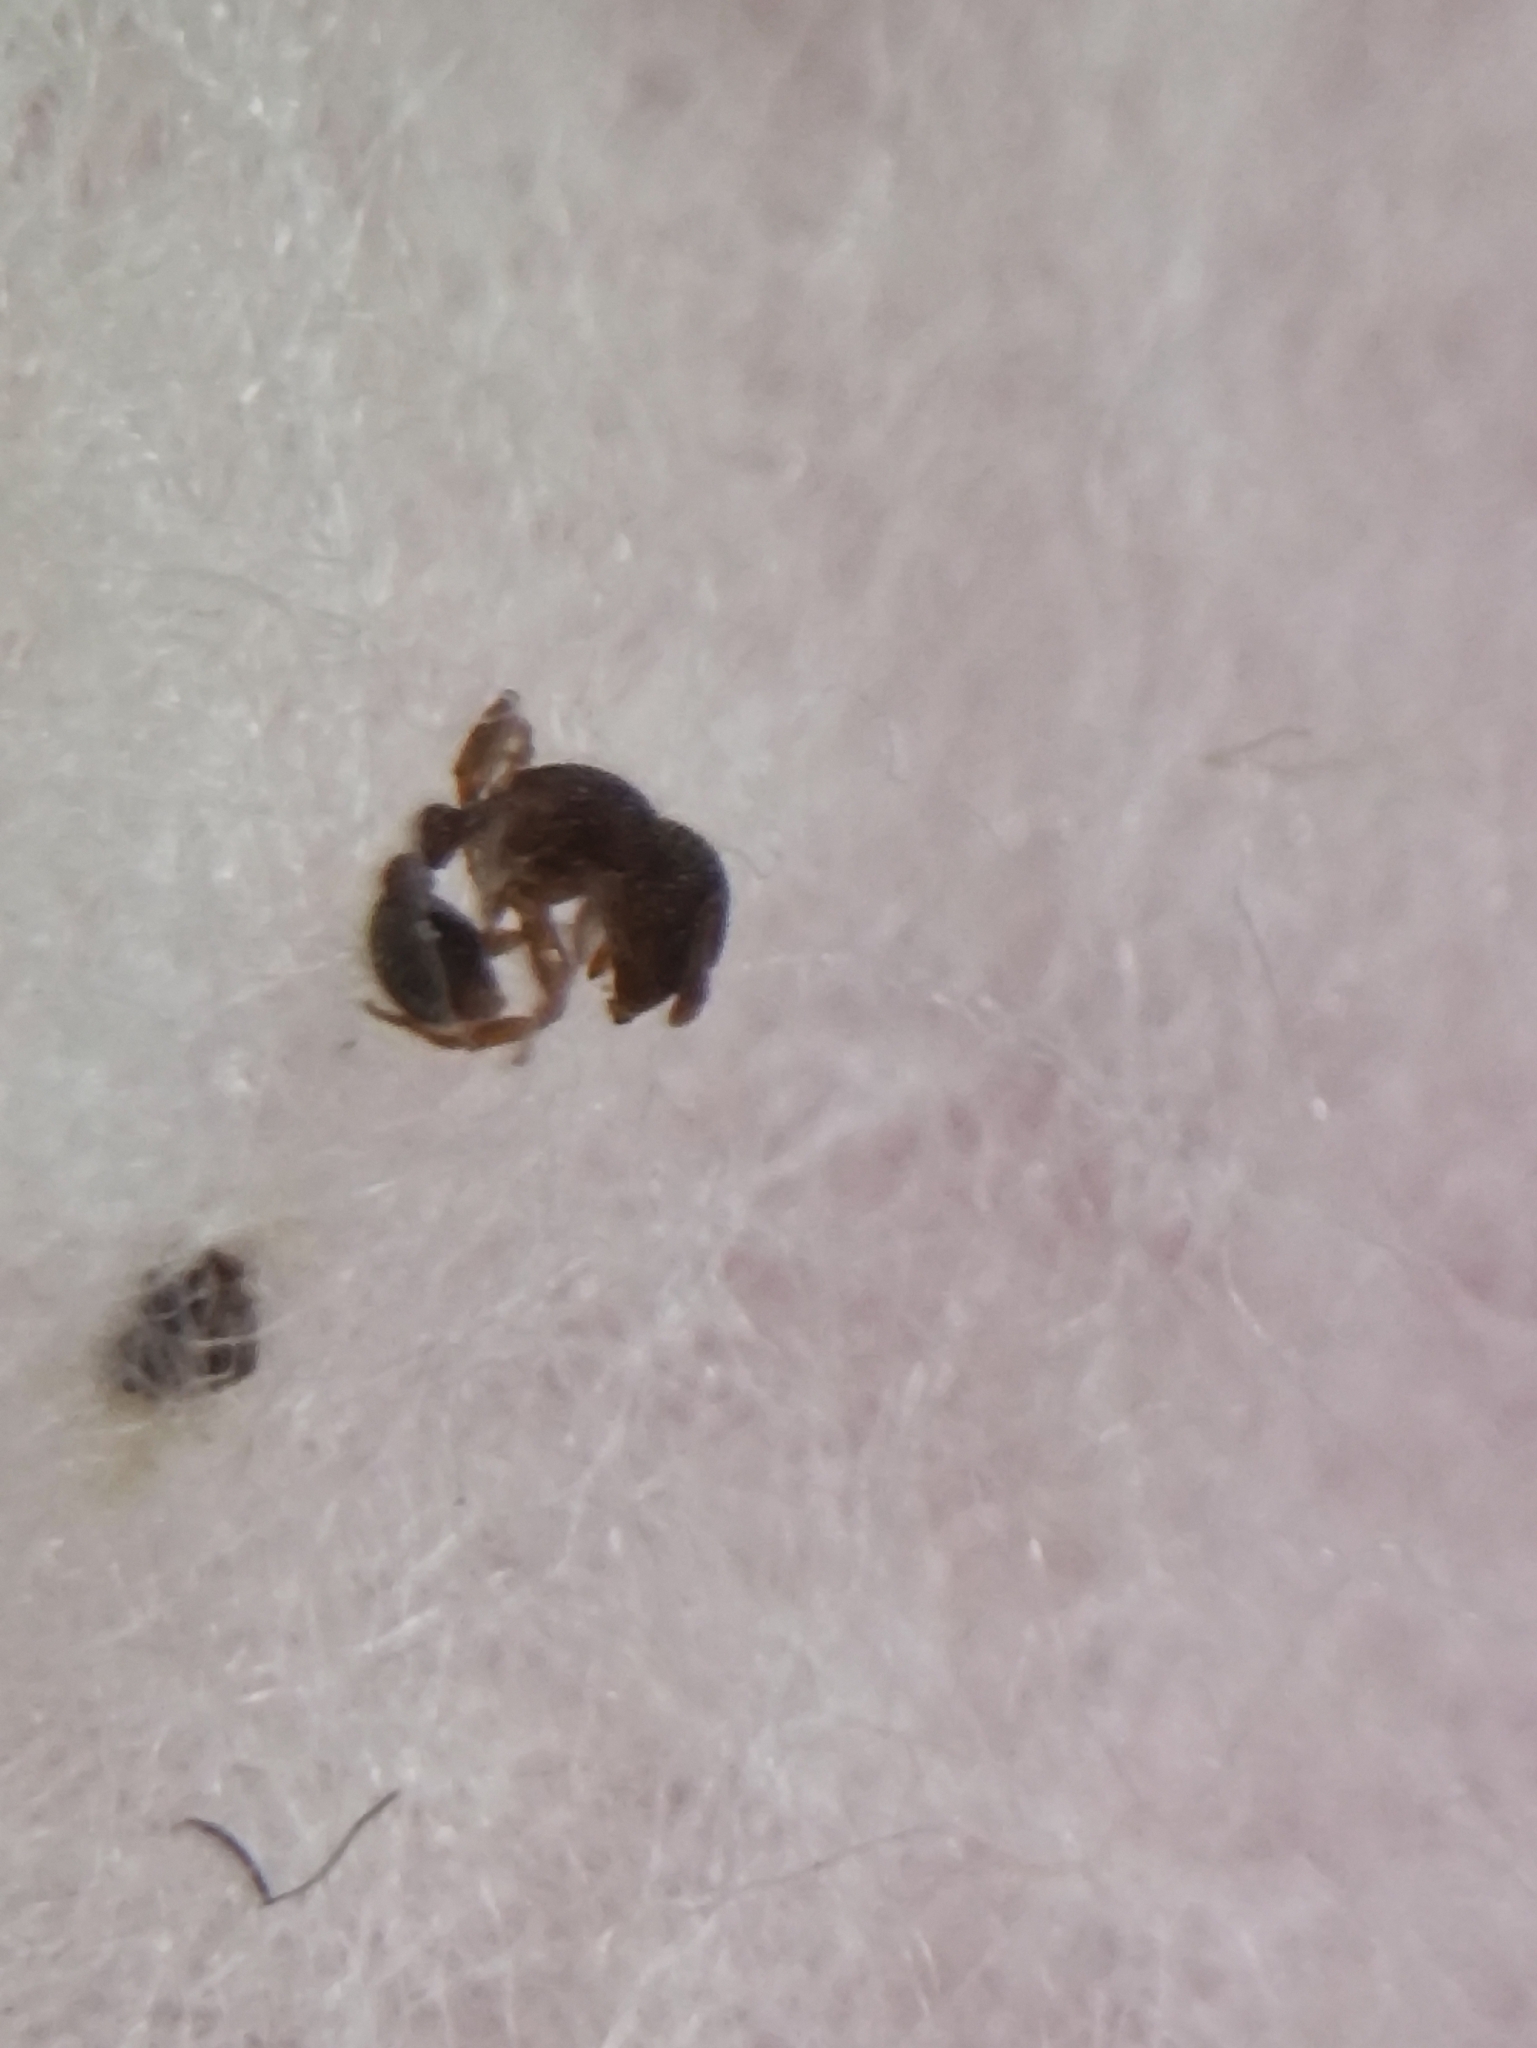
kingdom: Animalia
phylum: Arthropoda
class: Insecta
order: Hymenoptera
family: Formicidae
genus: Tetramorium
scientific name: Tetramorium lanuginosum
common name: Ant
